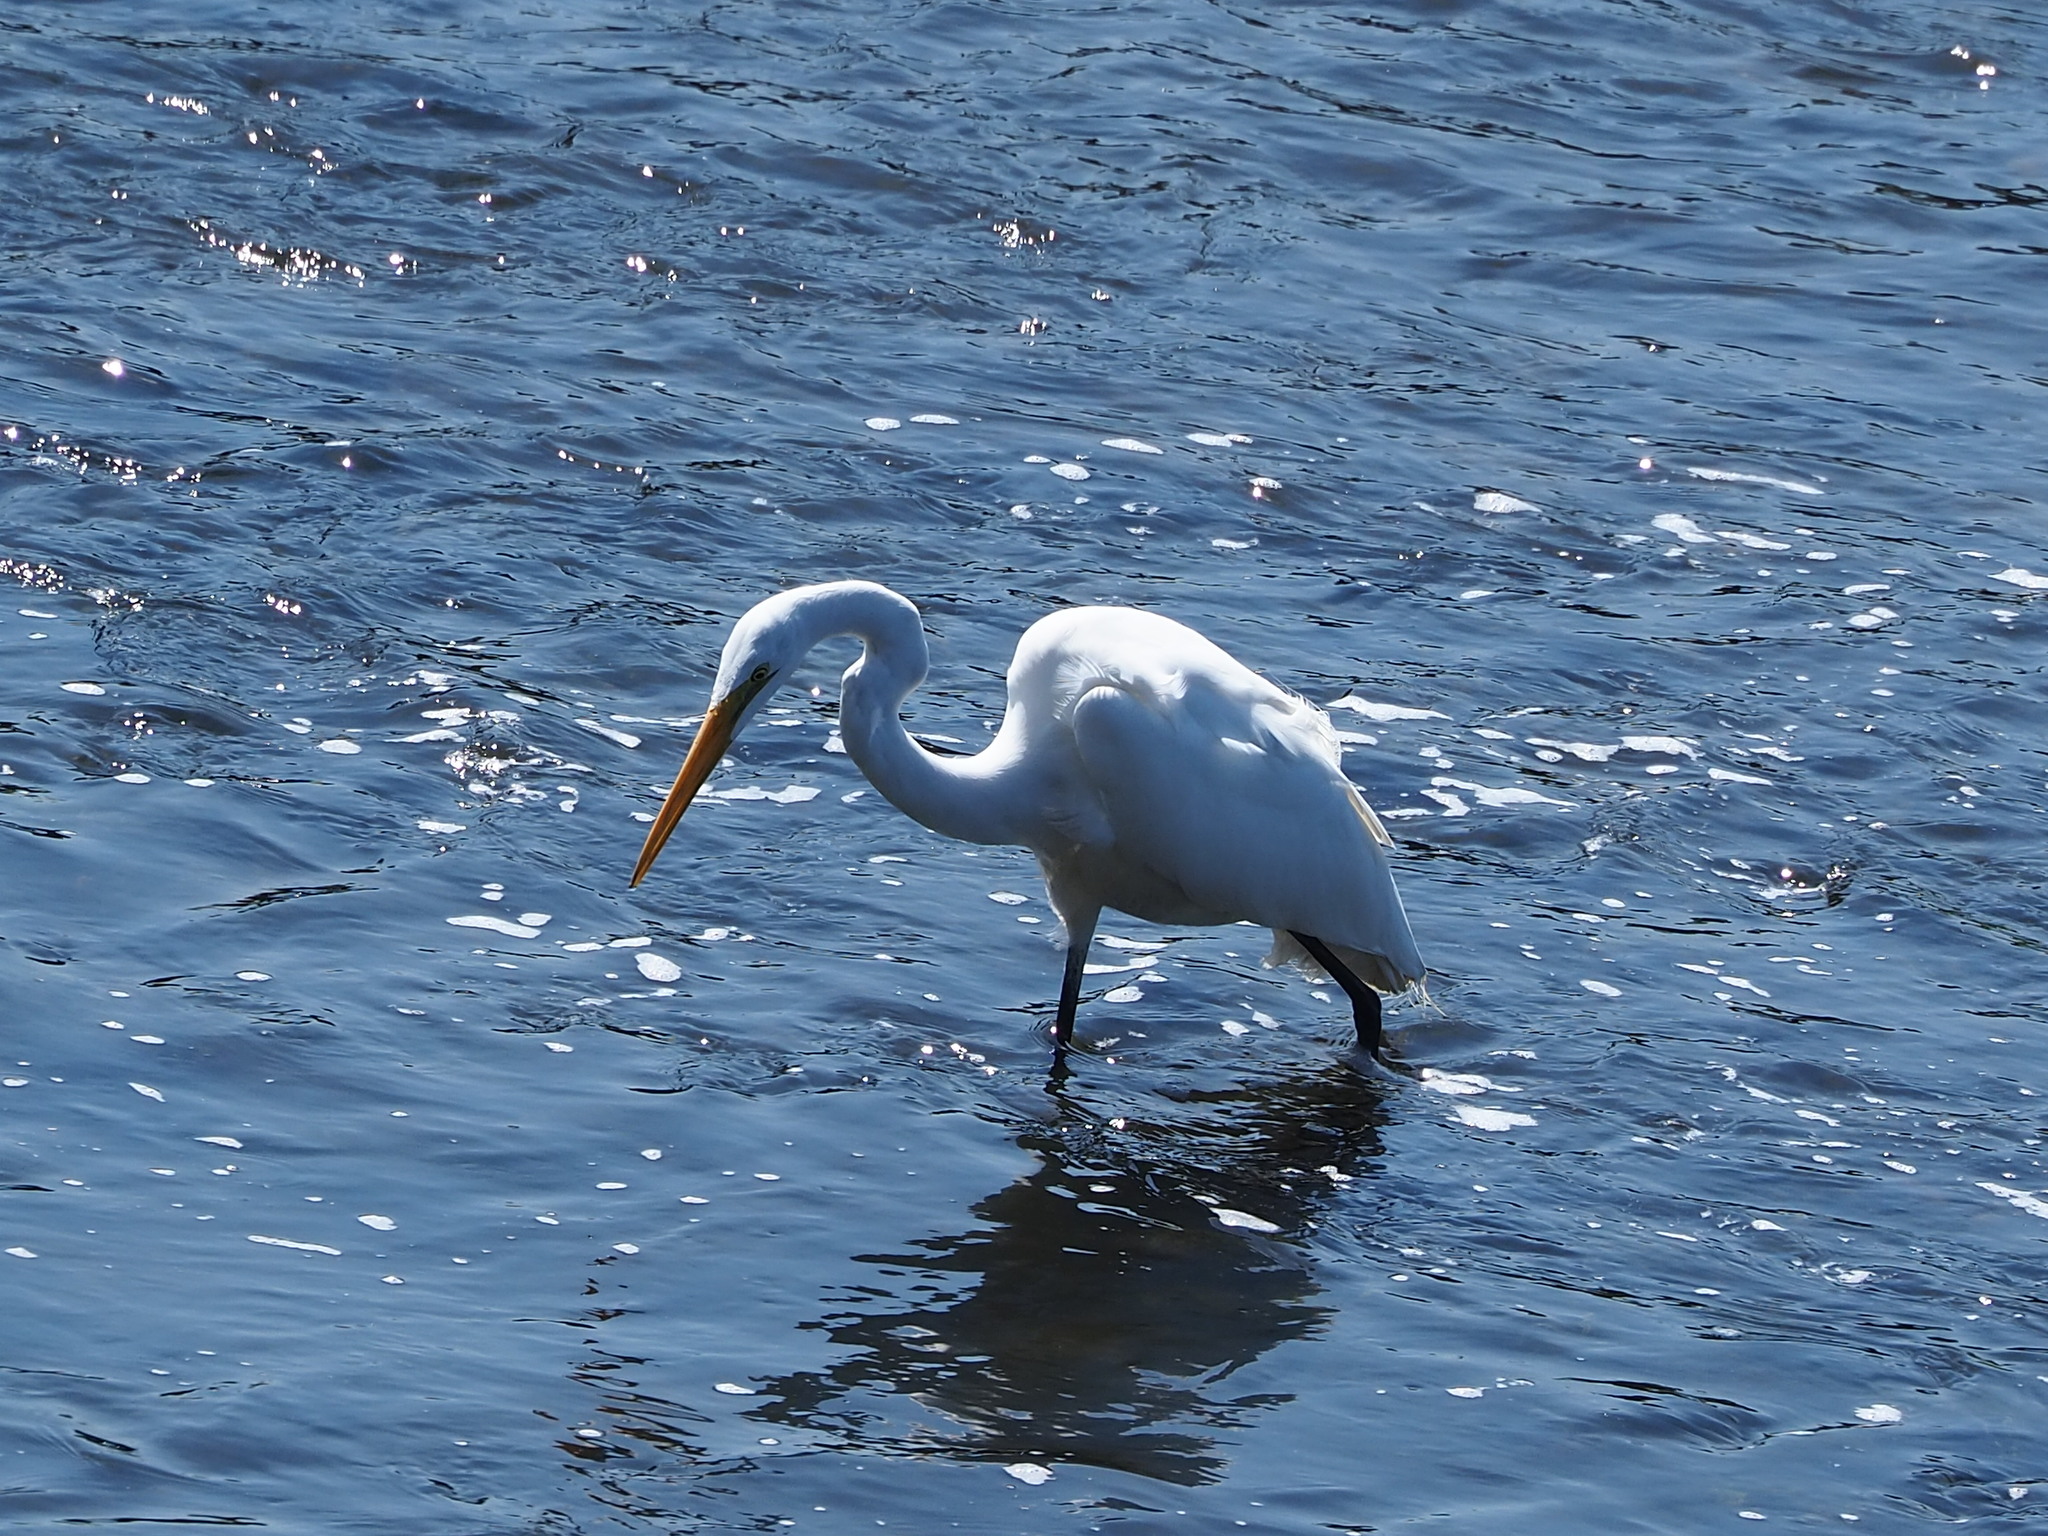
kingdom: Animalia
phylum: Chordata
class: Aves
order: Pelecaniformes
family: Ardeidae
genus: Ardea
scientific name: Ardea alba
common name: Great egret
